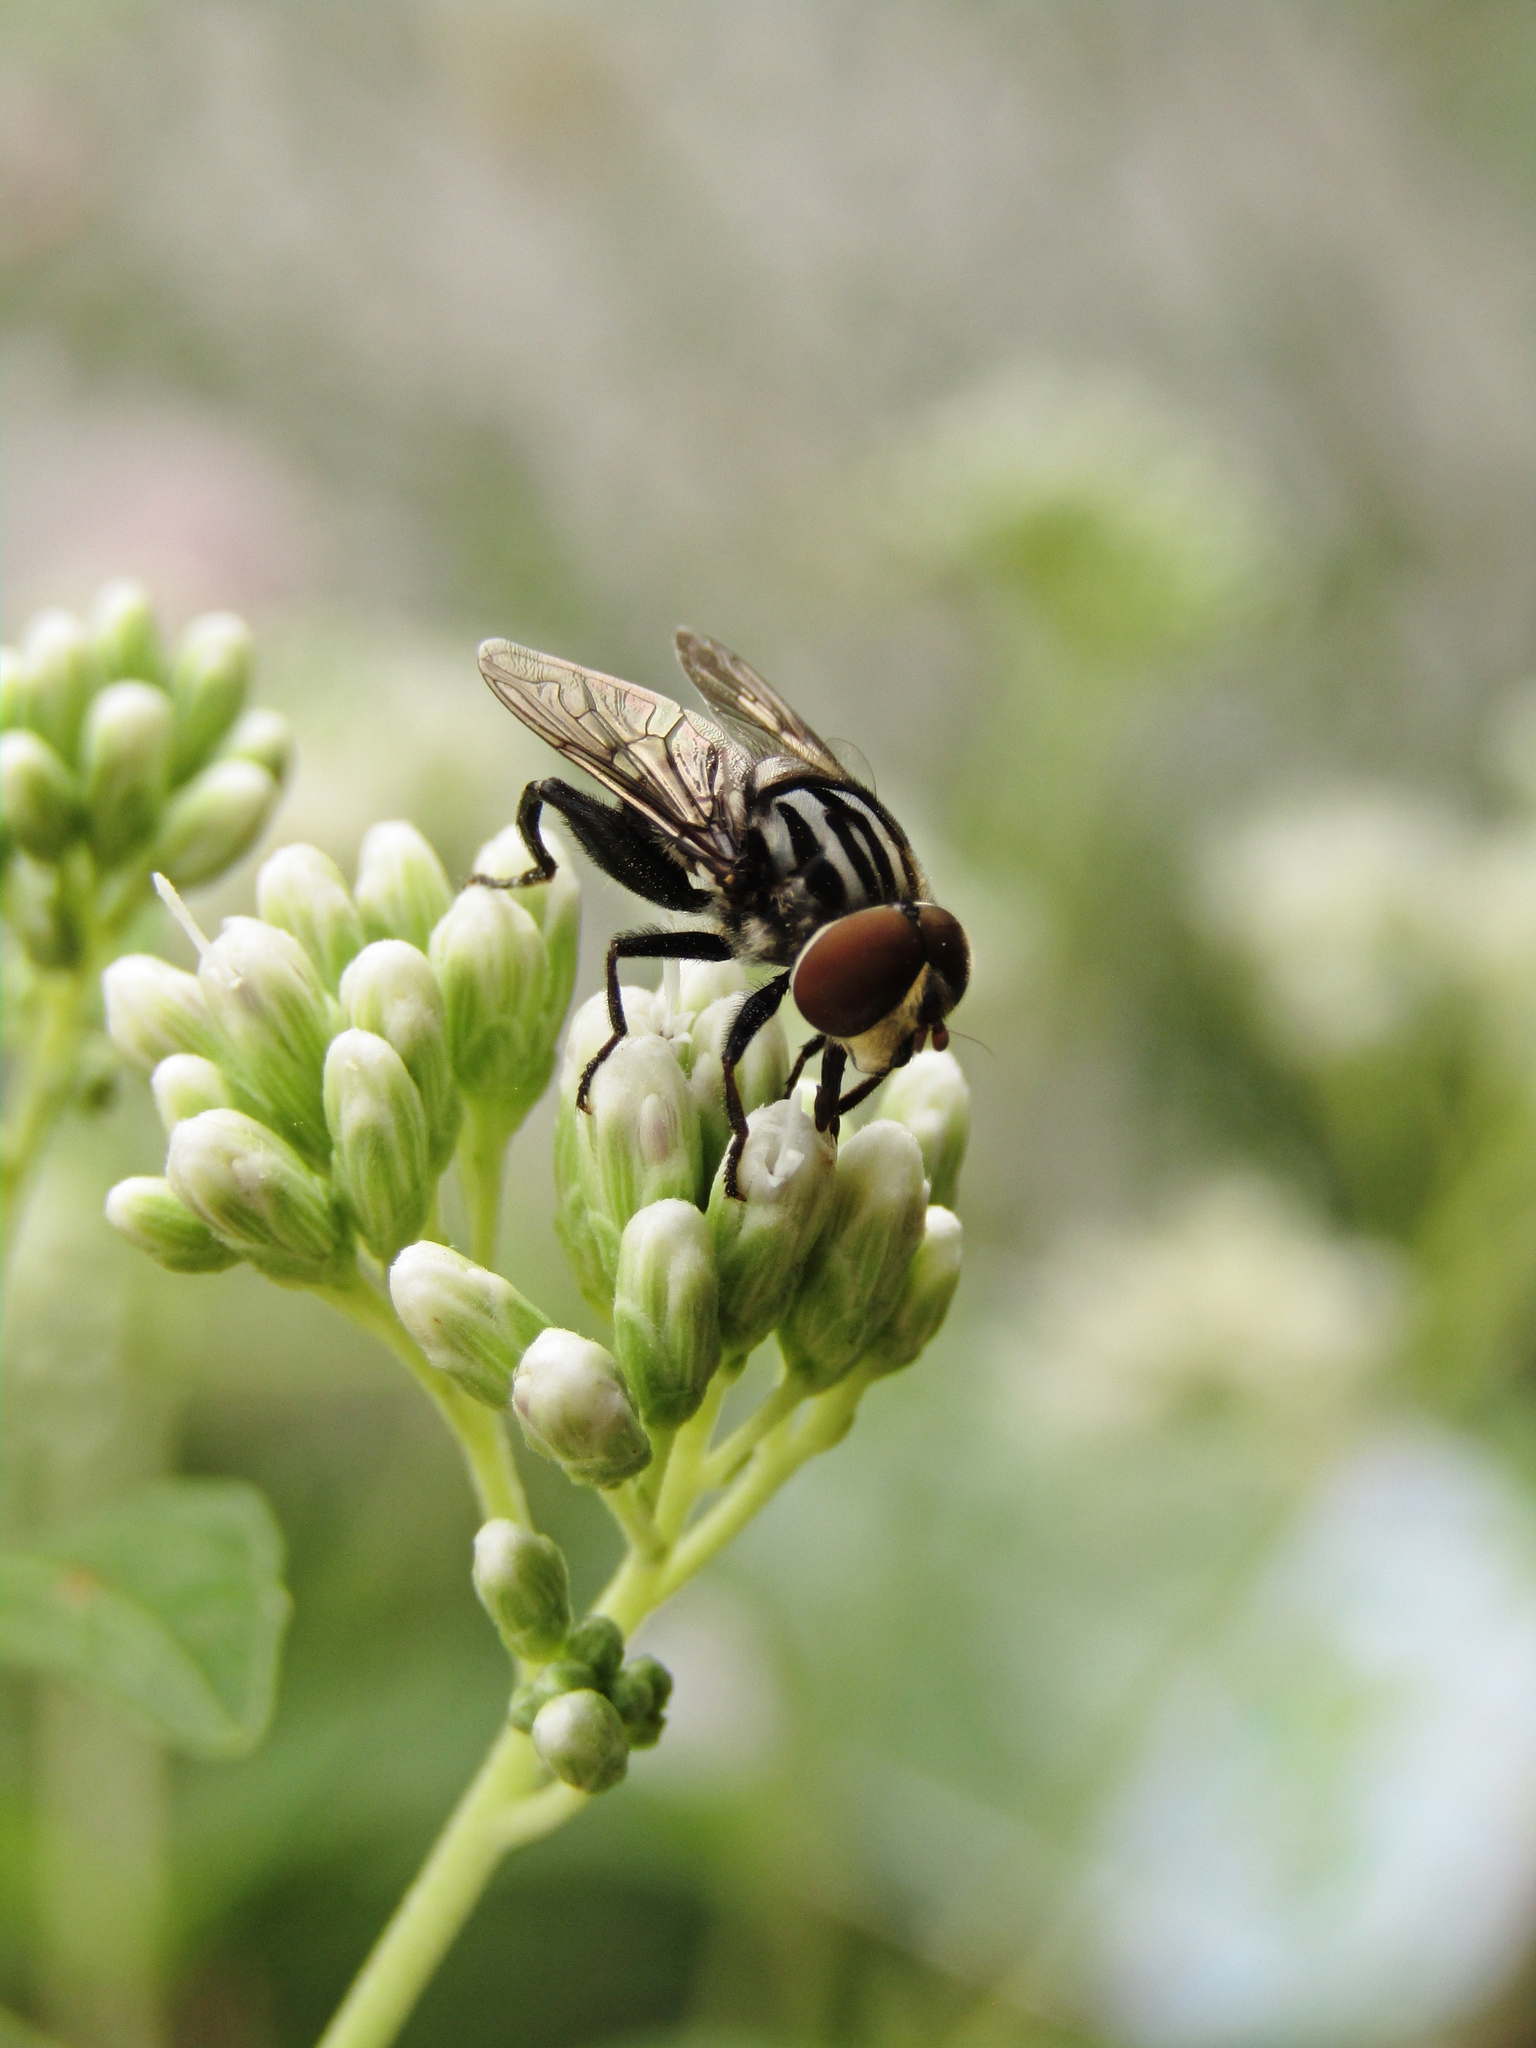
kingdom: Animalia
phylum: Arthropoda
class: Insecta
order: Diptera
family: Syrphidae
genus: Palpada
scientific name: Palpada furcata
